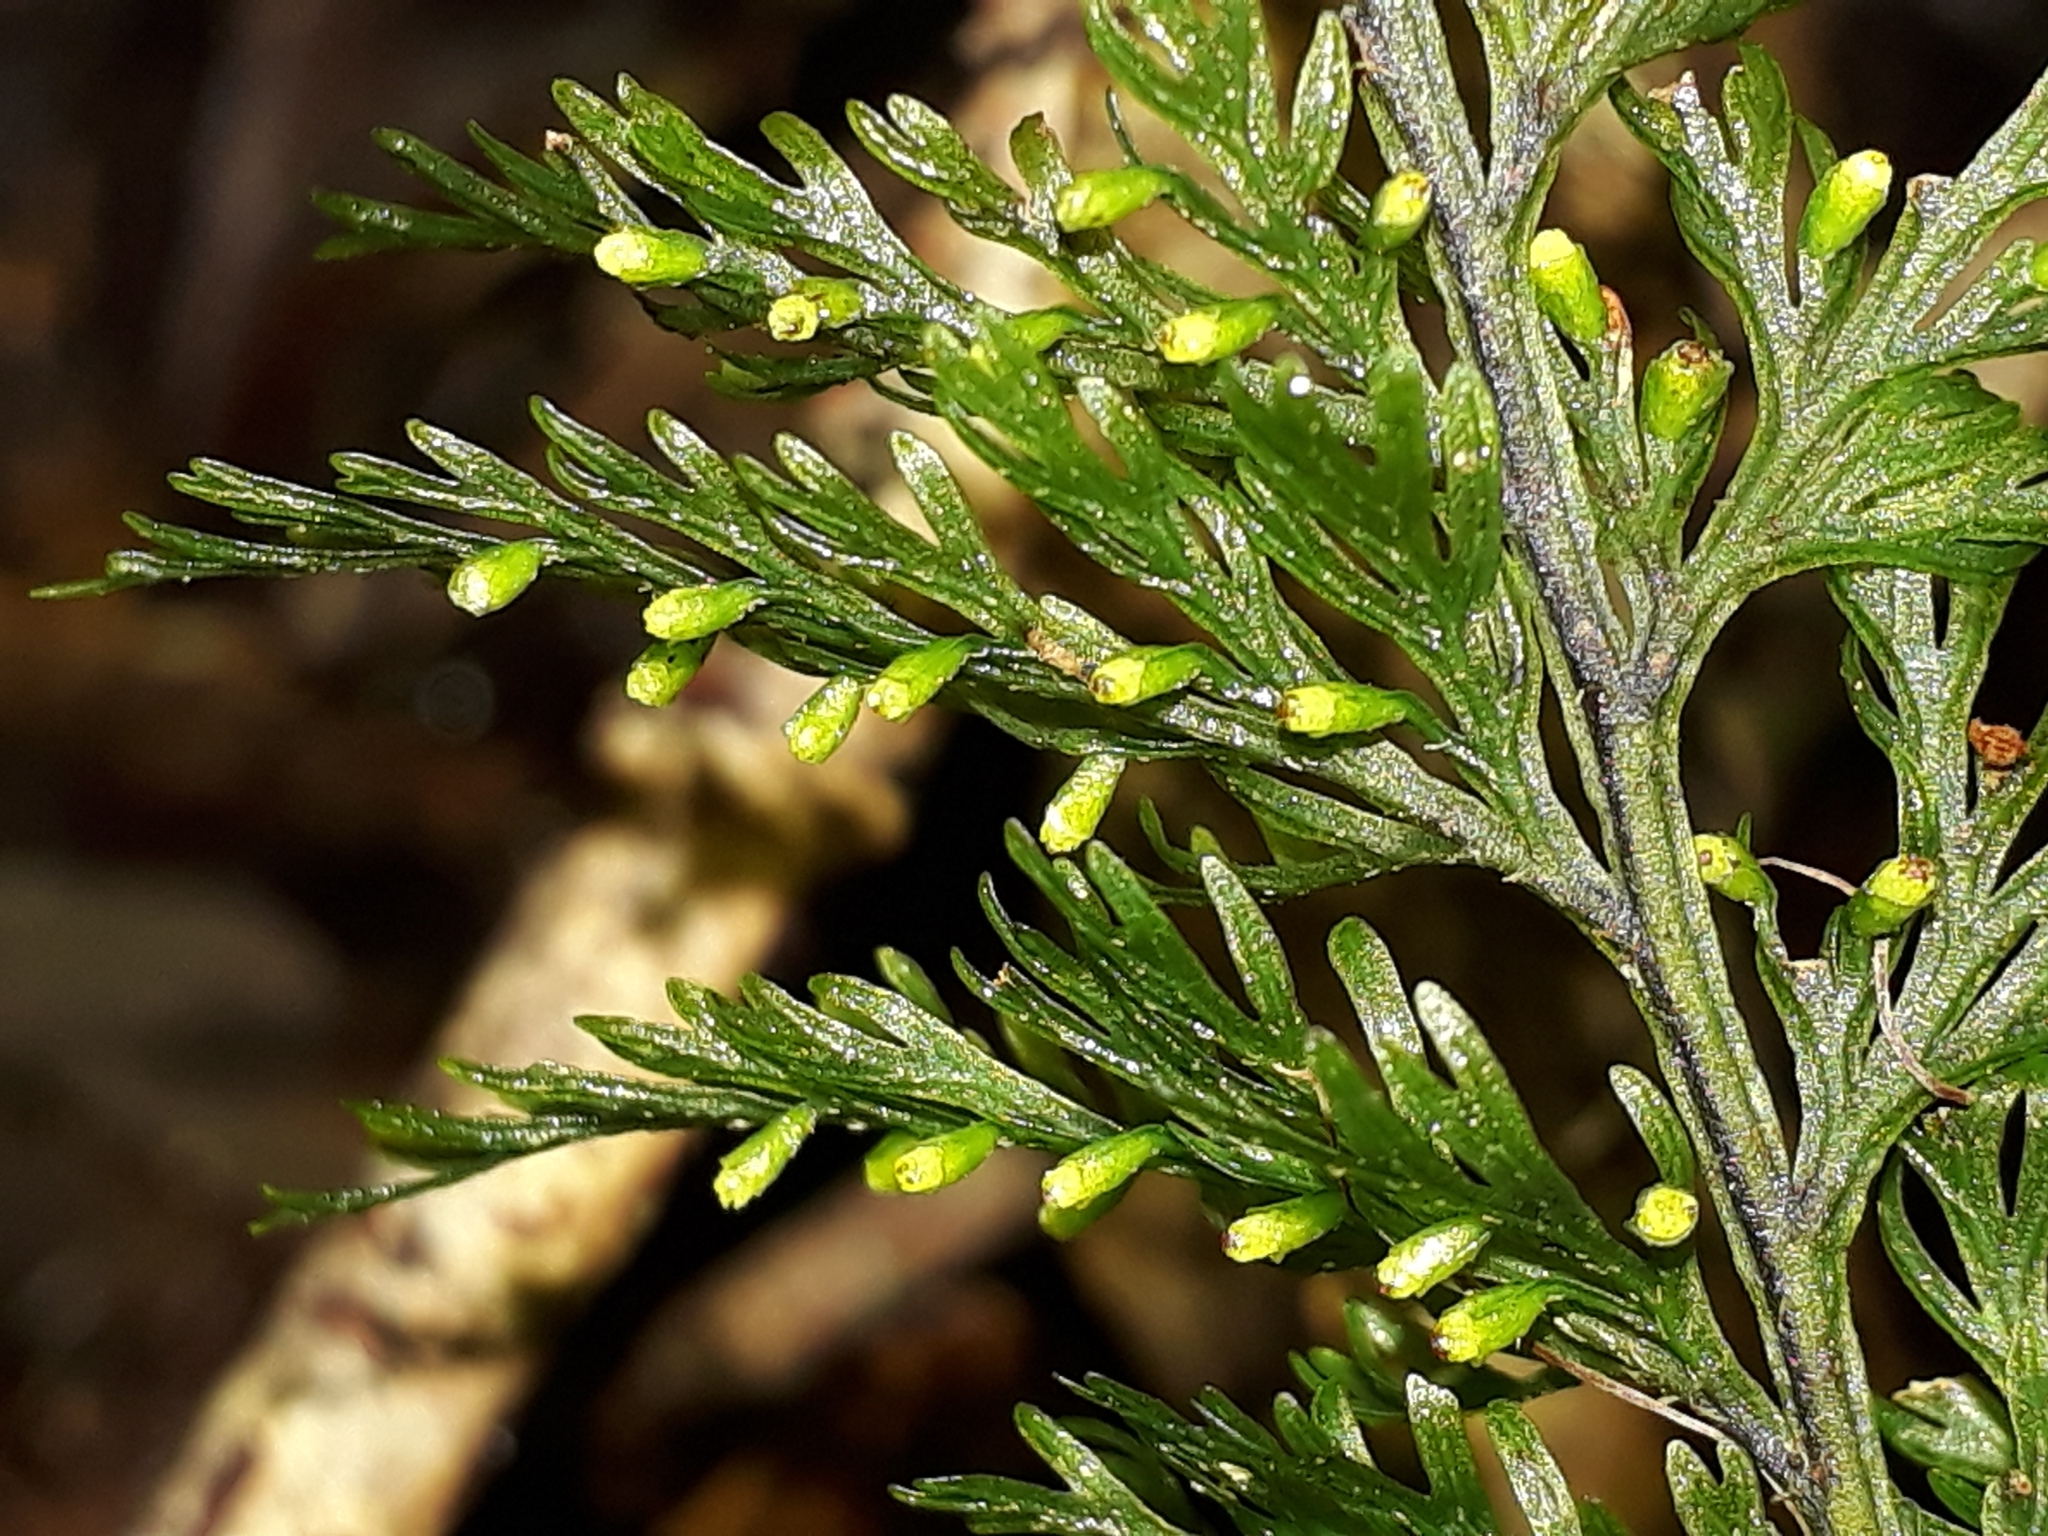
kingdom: Plantae
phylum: Tracheophyta
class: Polypodiopsida
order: Hymenophyllales
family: Hymenophyllaceae
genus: Abrodictyum
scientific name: Abrodictyum strictum
